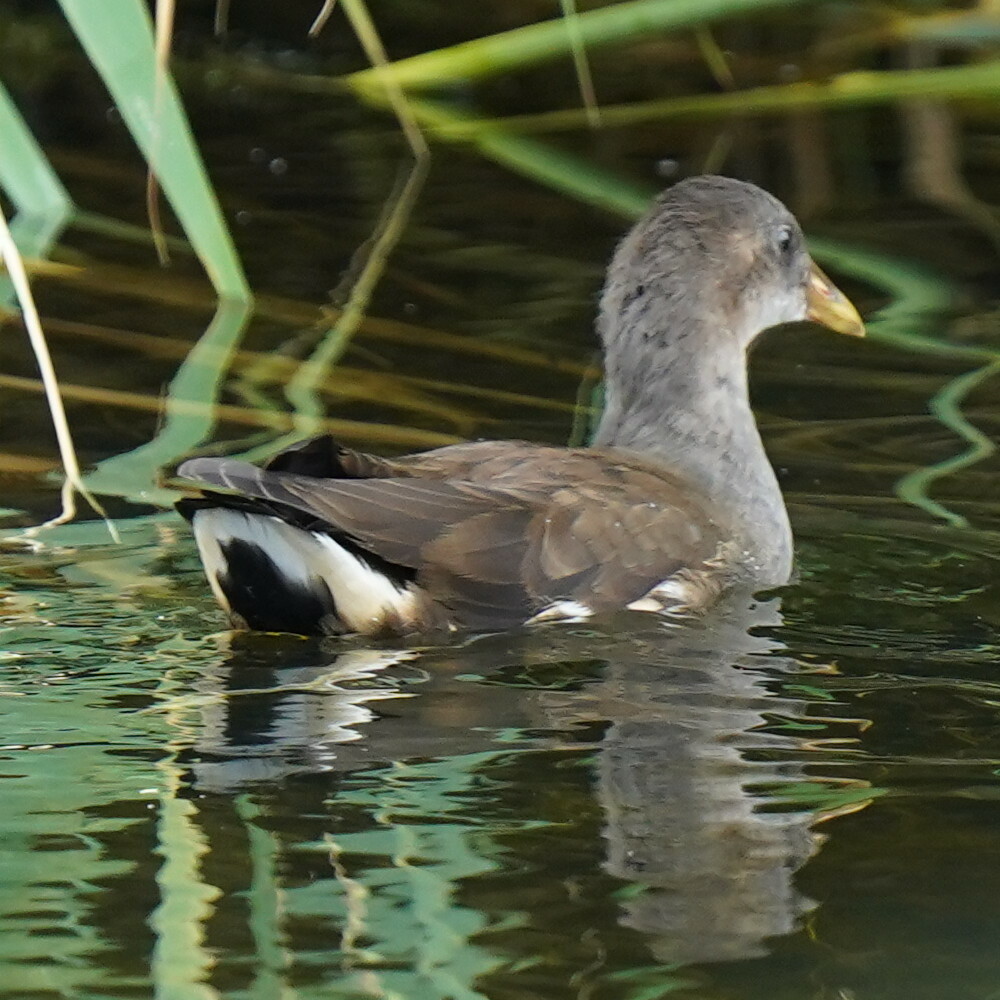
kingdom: Animalia
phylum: Chordata
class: Aves
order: Gruiformes
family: Rallidae
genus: Gallinula
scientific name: Gallinula chloropus
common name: Common moorhen
